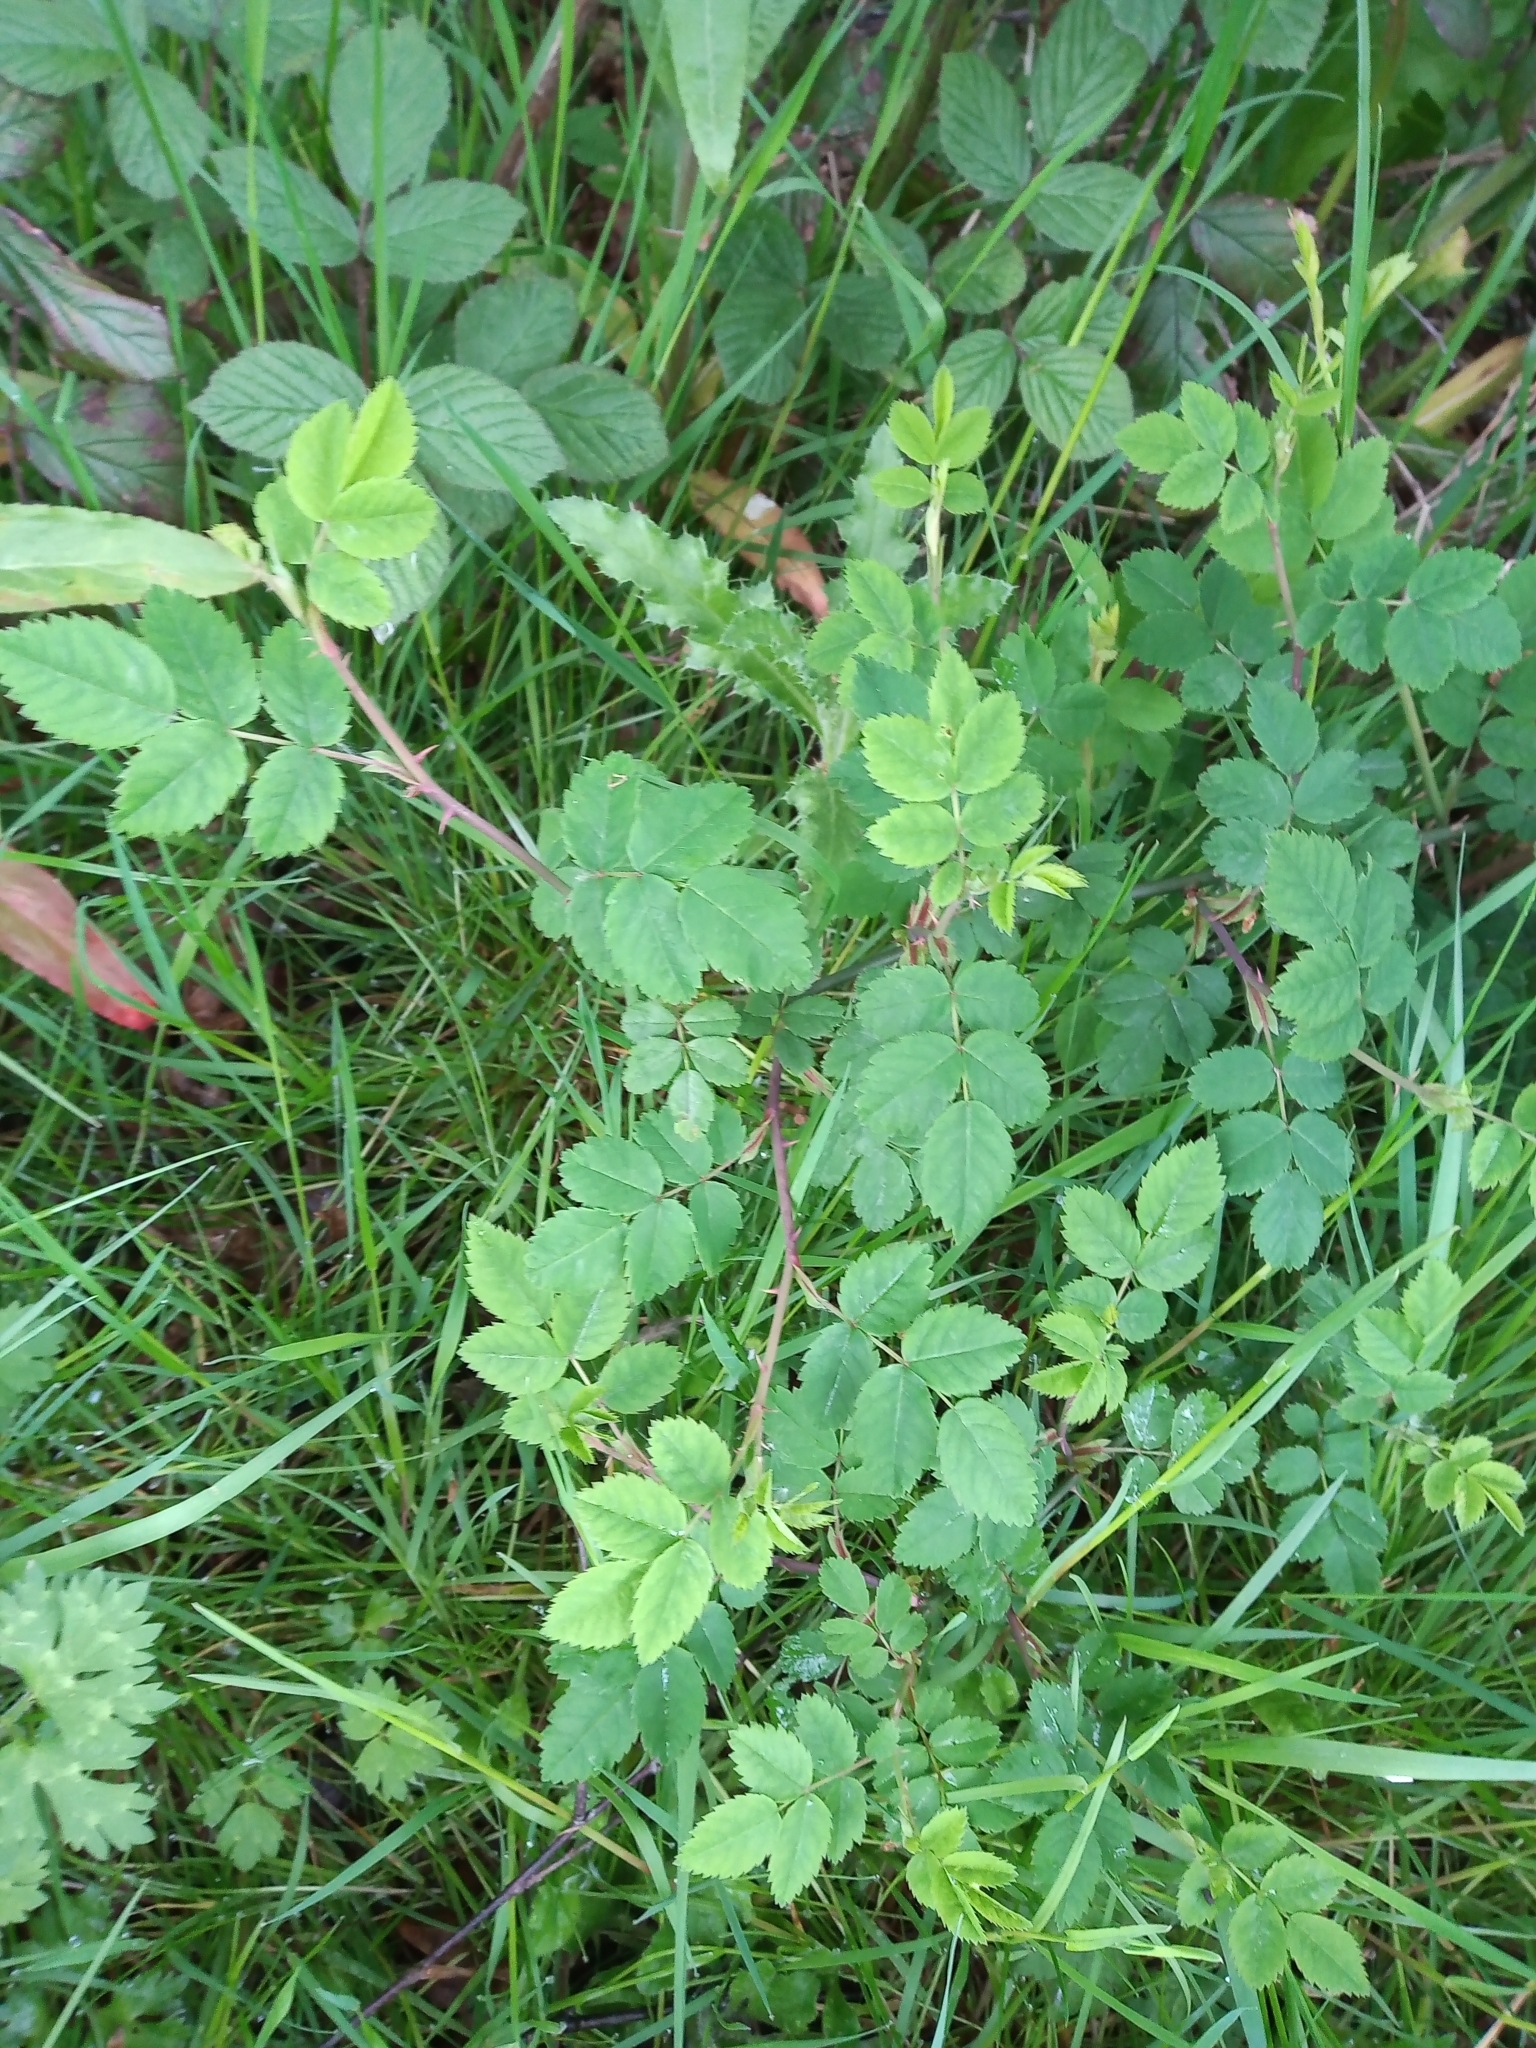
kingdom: Plantae
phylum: Tracheophyta
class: Magnoliopsida
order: Rosales
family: Rosaceae
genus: Rosa
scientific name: Rosa arvensis
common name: Field rose
